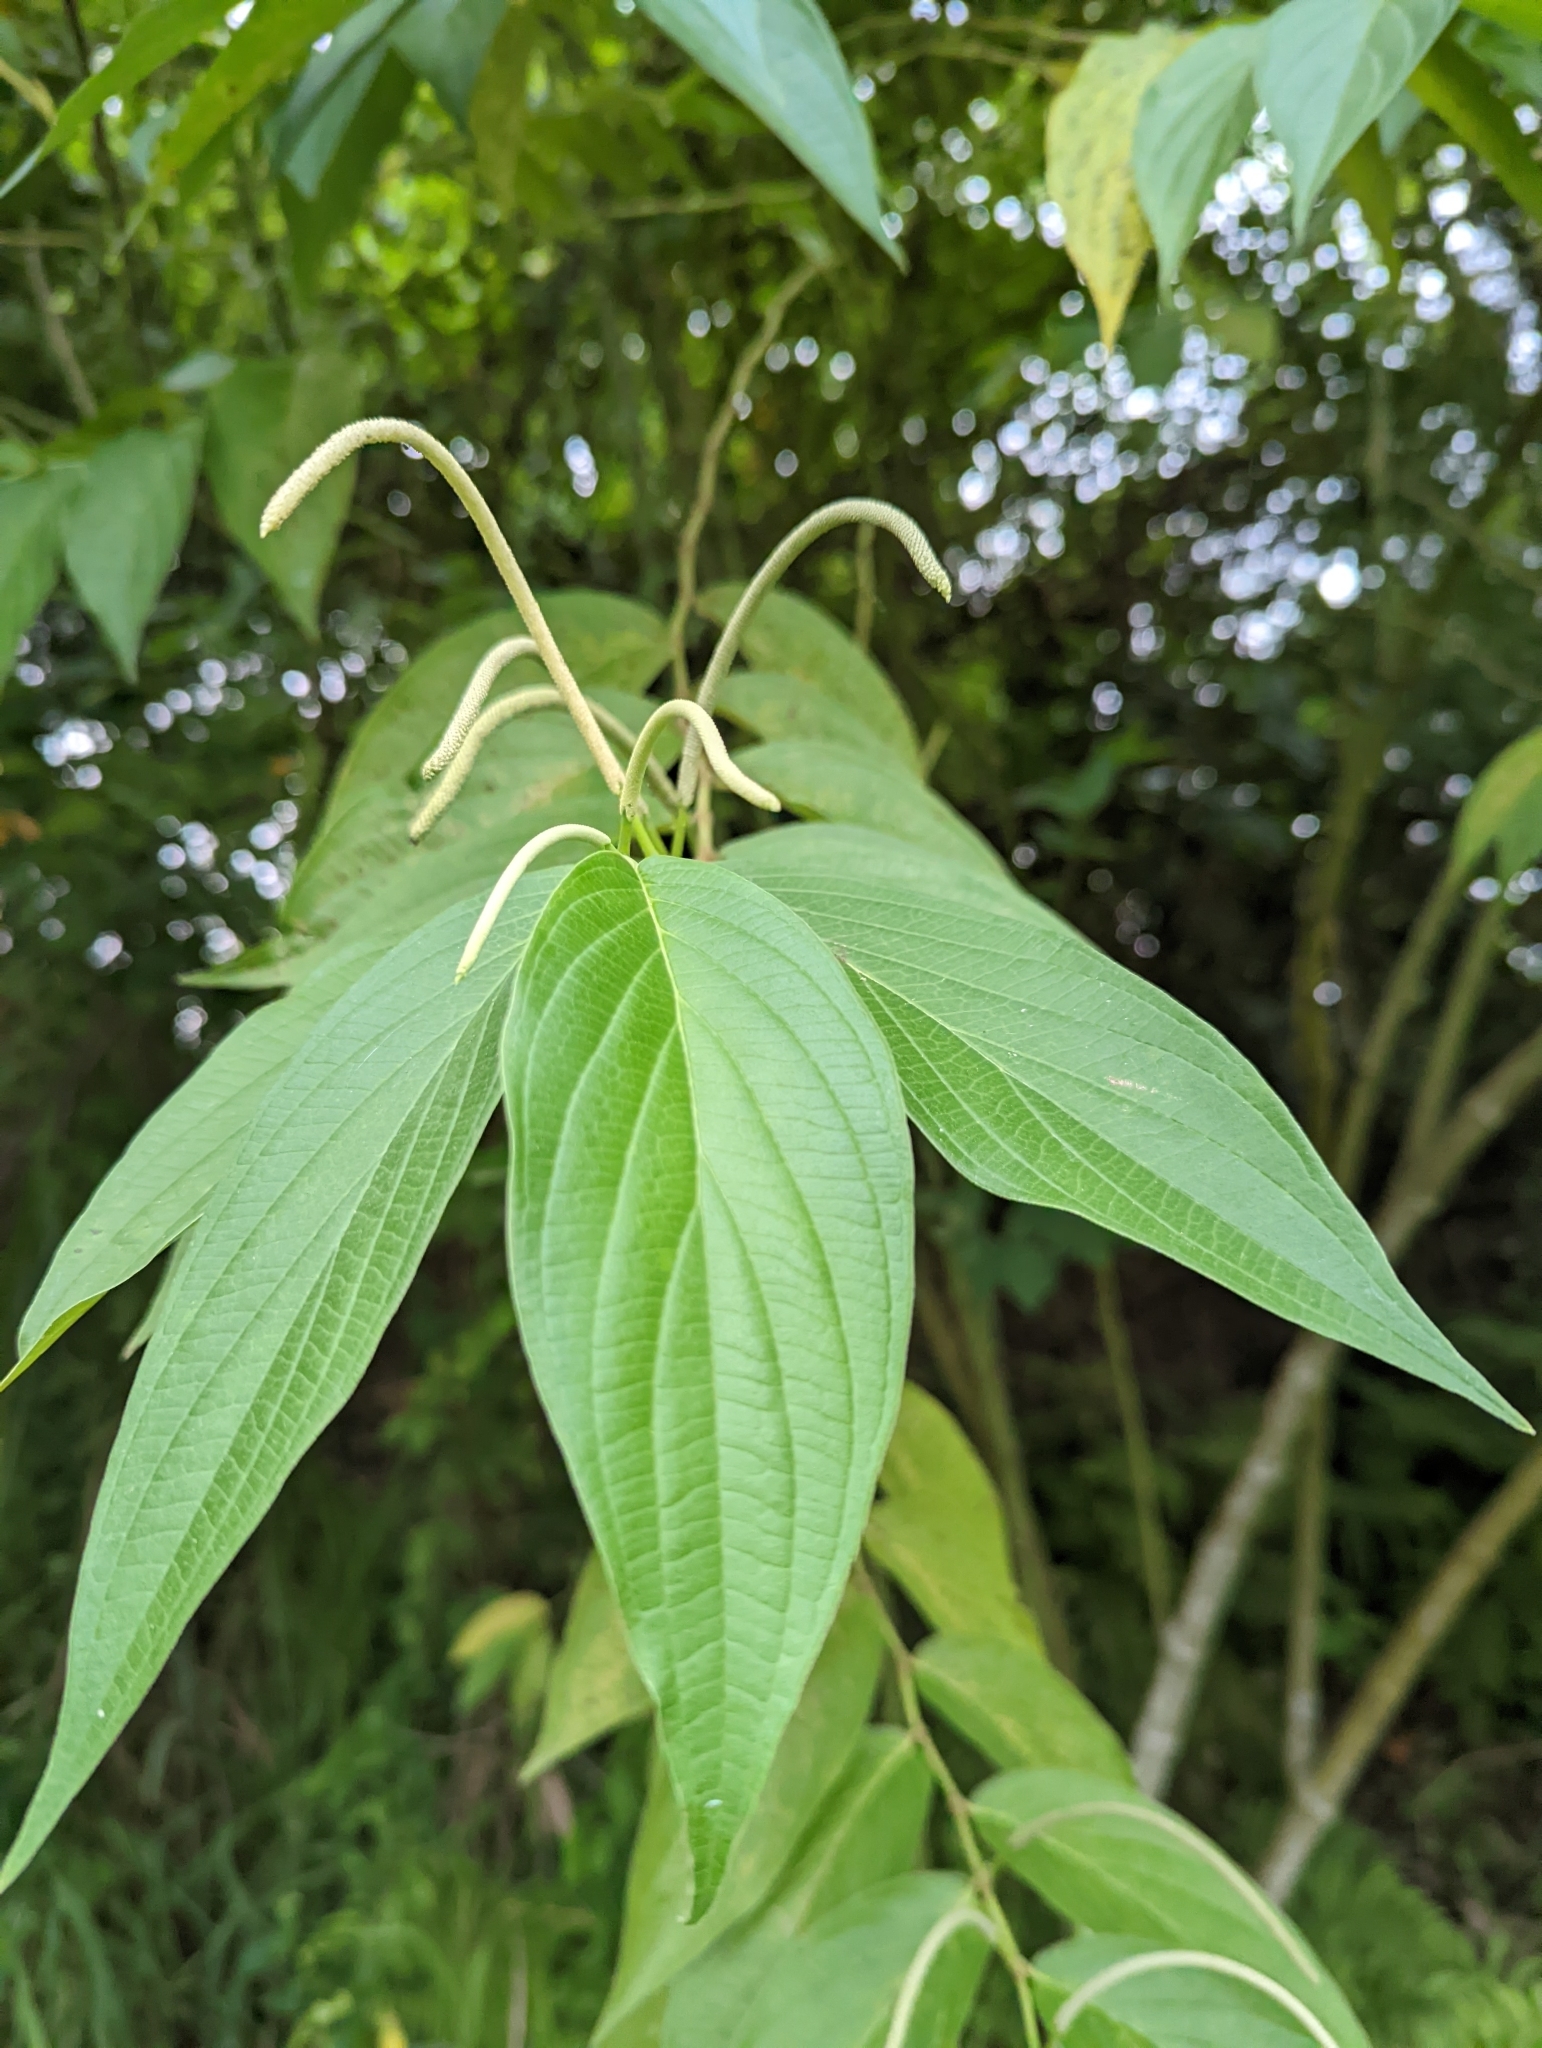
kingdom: Plantae
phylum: Tracheophyta
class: Magnoliopsida
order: Piperales
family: Piperaceae
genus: Piper
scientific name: Piper aduncum
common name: Spiked pepper
